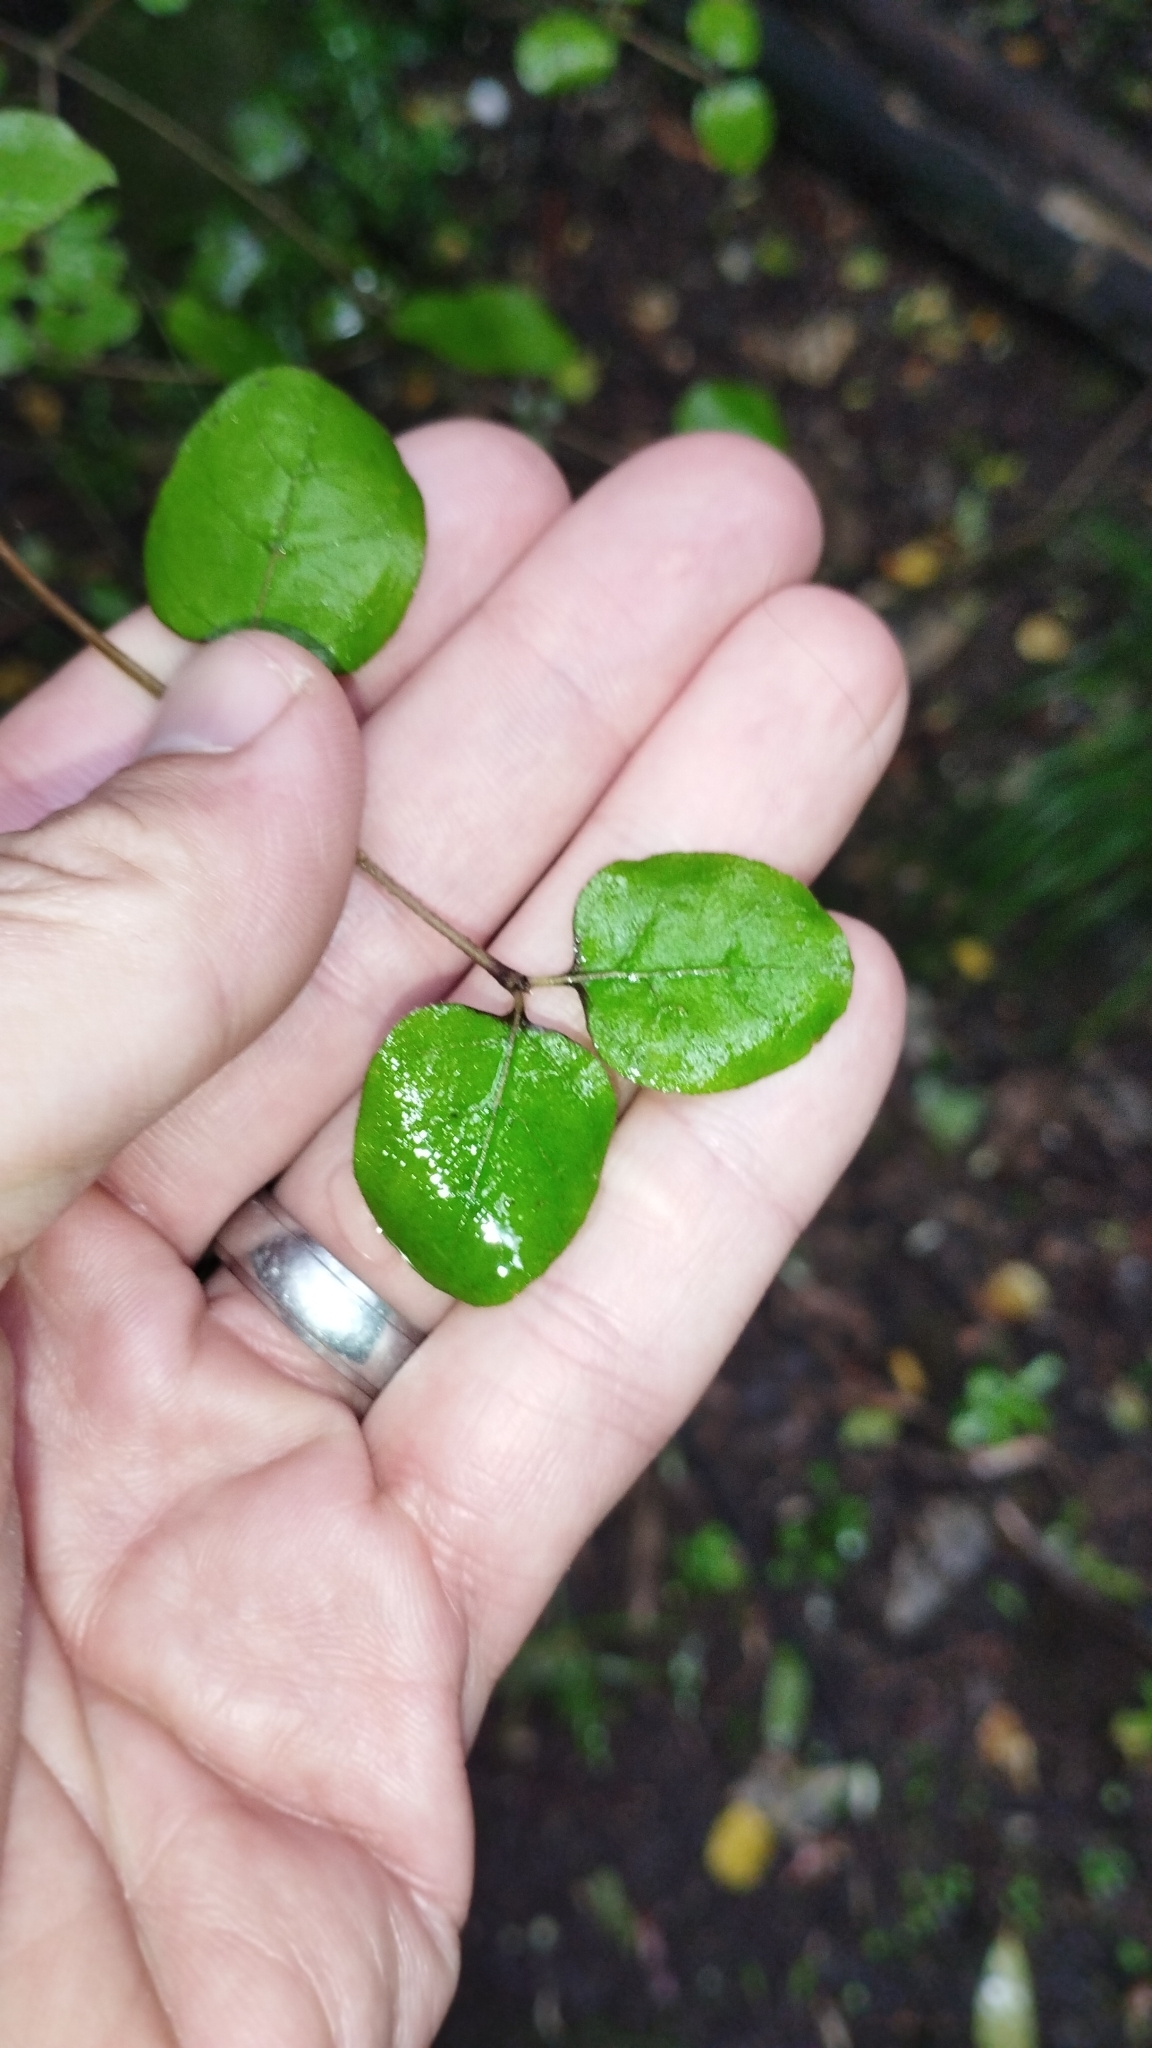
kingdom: Plantae
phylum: Tracheophyta
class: Magnoliopsida
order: Gentianales
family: Rubiaceae
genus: Coprosma
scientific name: Coprosma rotundifolia
